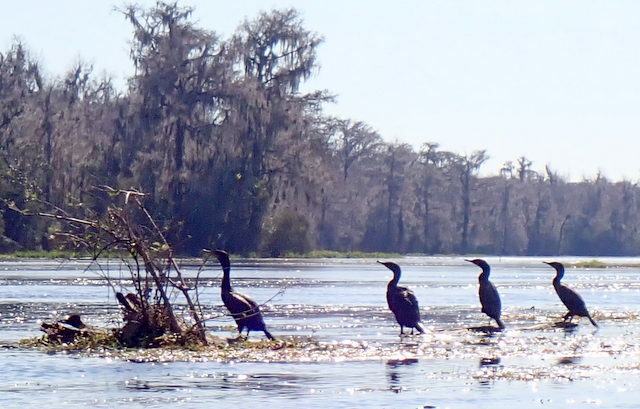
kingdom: Animalia
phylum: Chordata
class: Aves
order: Suliformes
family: Phalacrocoracidae
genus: Phalacrocorax
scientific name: Phalacrocorax auritus
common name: Double-crested cormorant
